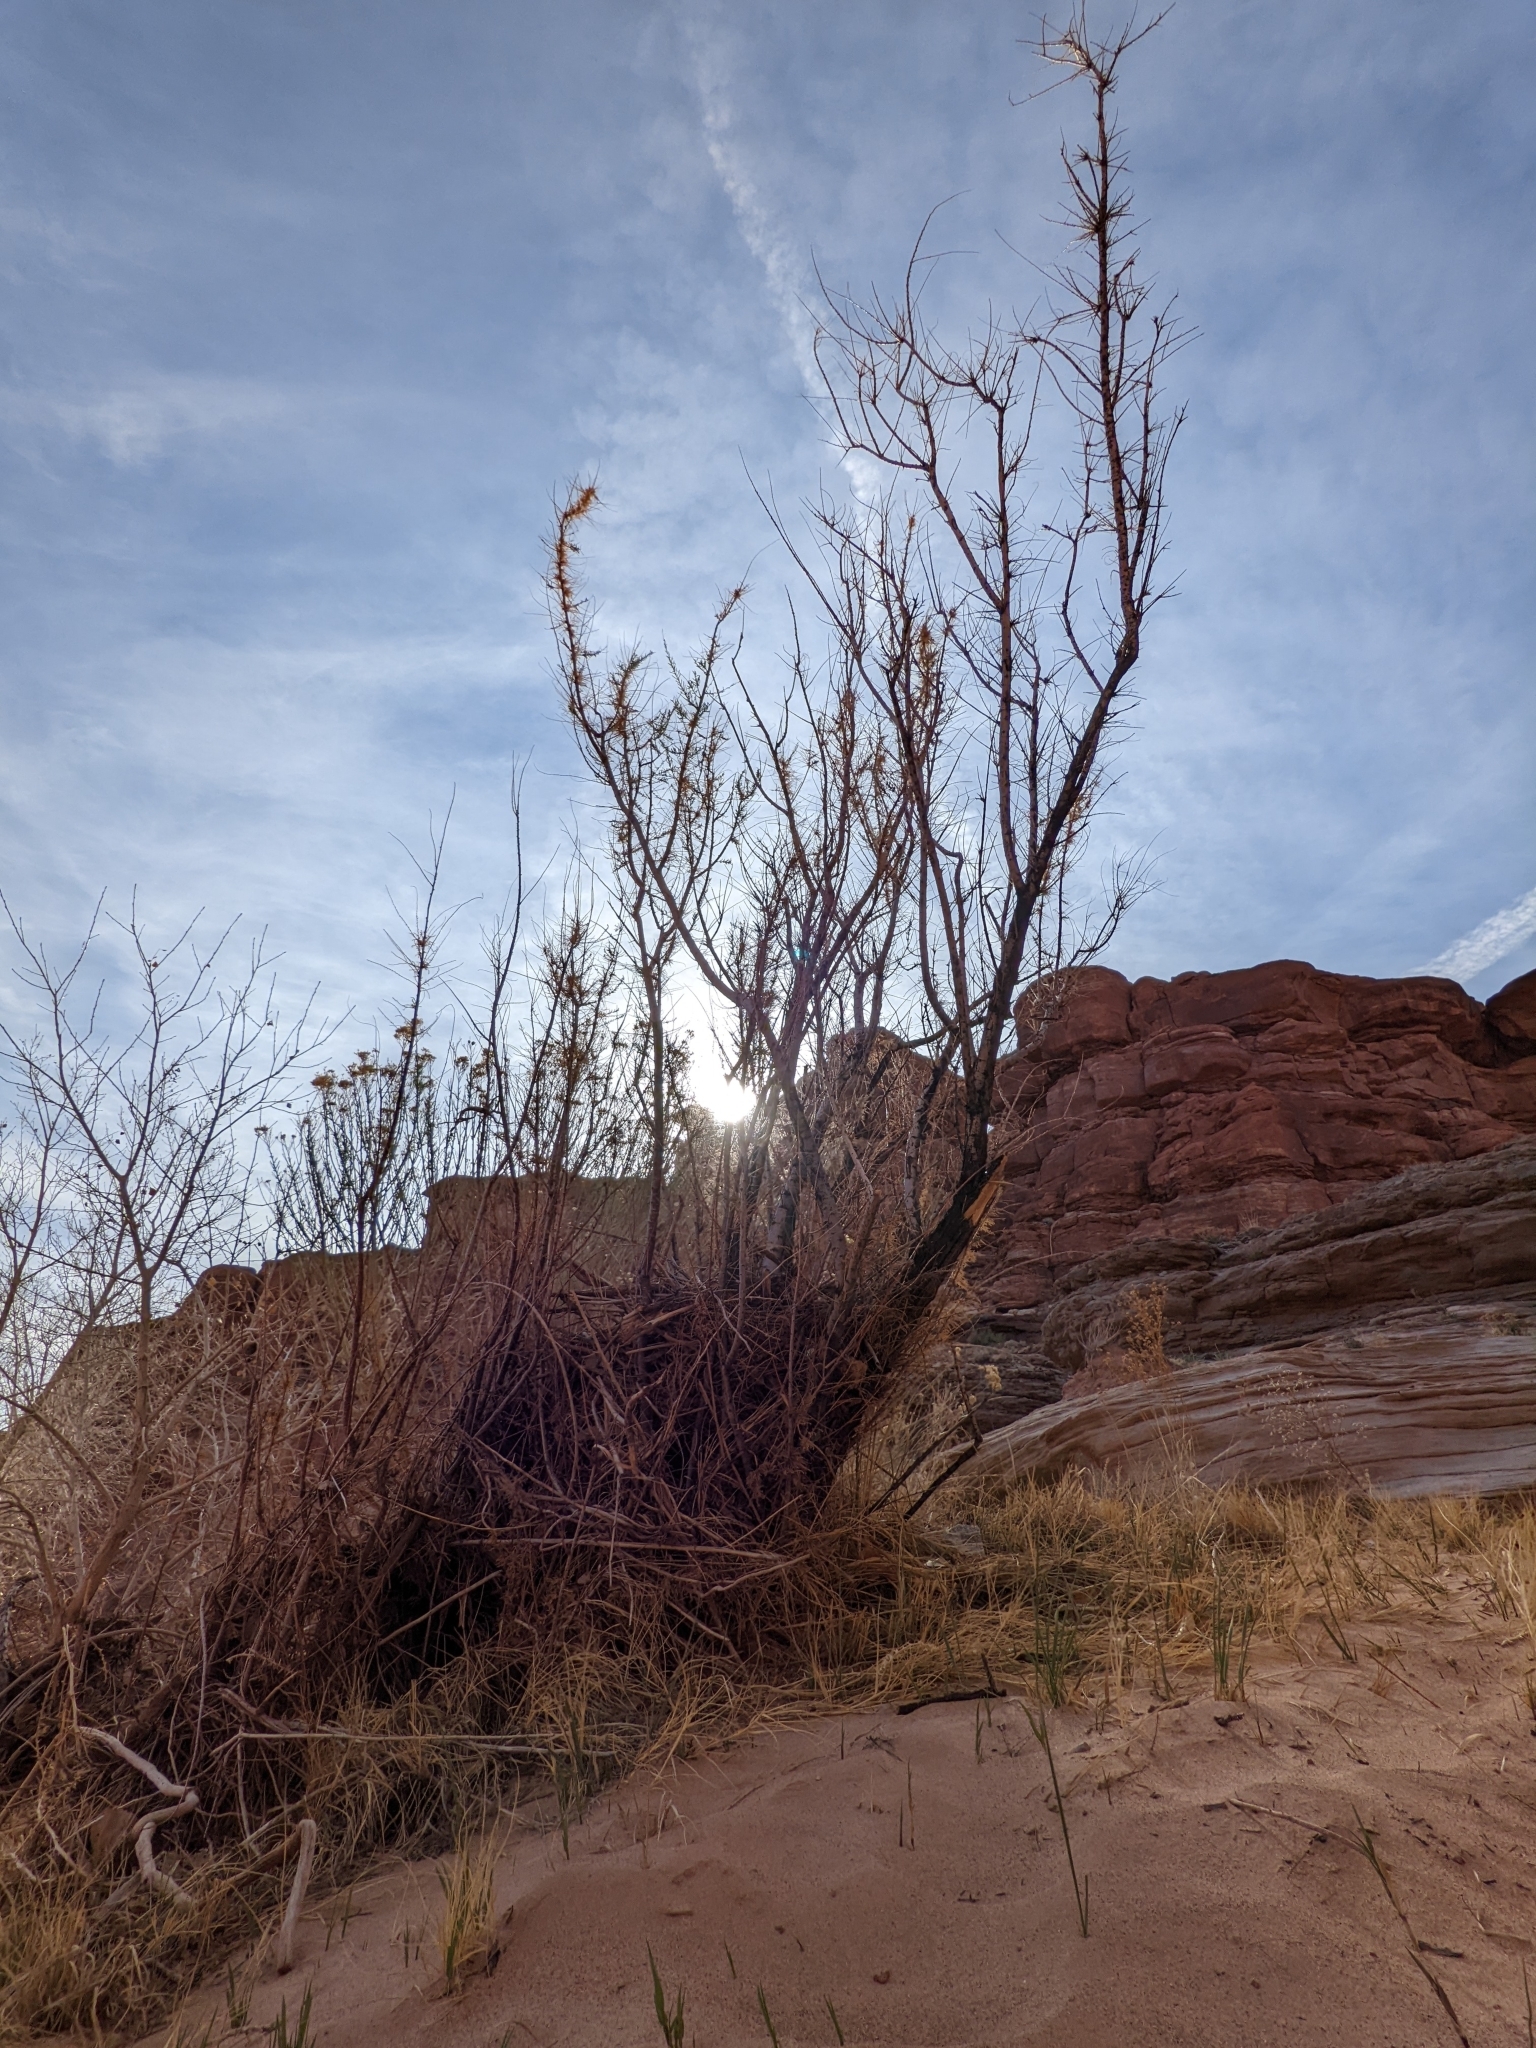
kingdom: Plantae
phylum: Tracheophyta
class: Magnoliopsida
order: Caryophyllales
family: Tamaricaceae
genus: Tamarix
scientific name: Tamarix
